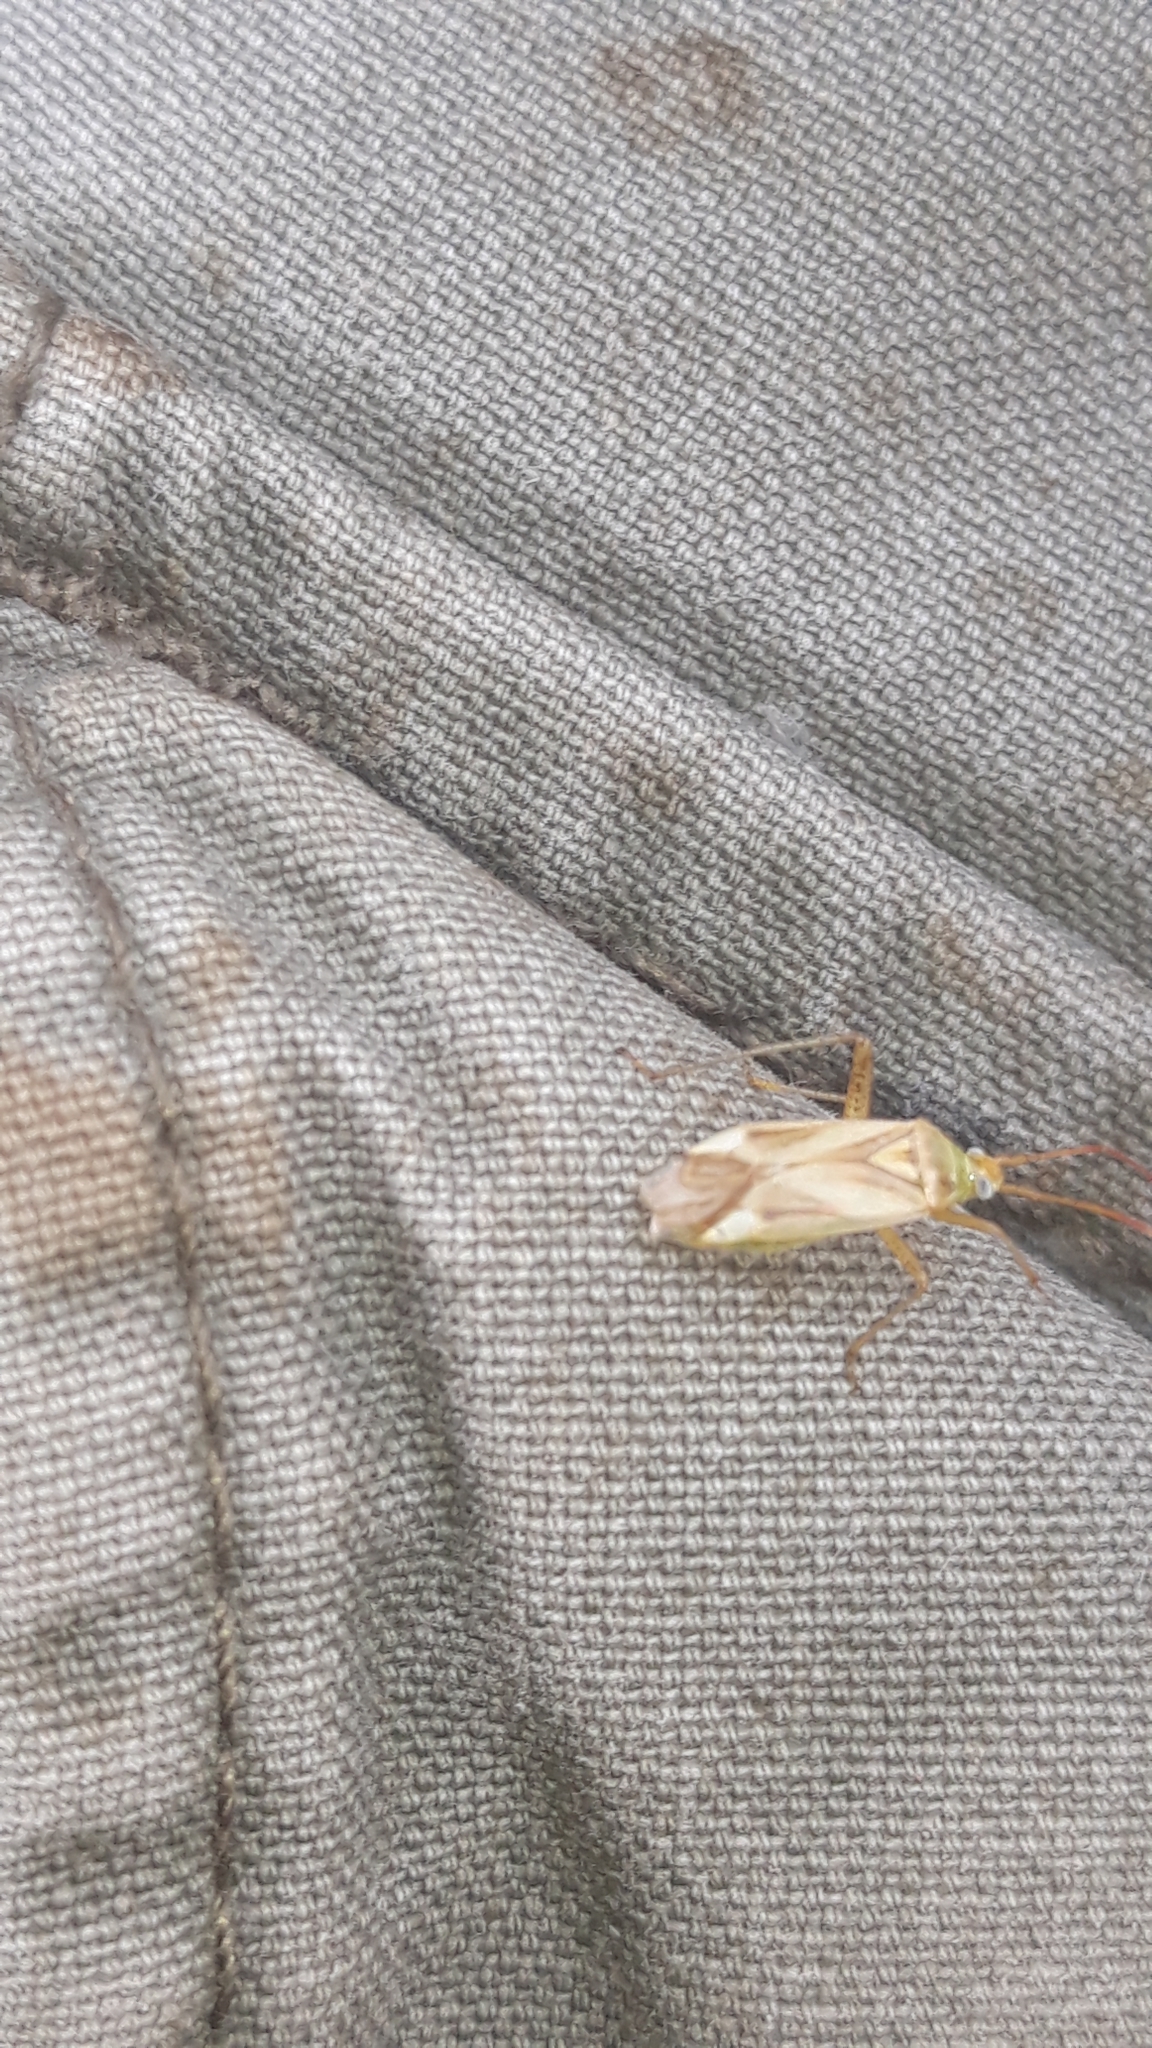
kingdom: Animalia
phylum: Arthropoda
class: Insecta
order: Hemiptera
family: Miridae
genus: Adelphocoris
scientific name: Adelphocoris lineolatus
